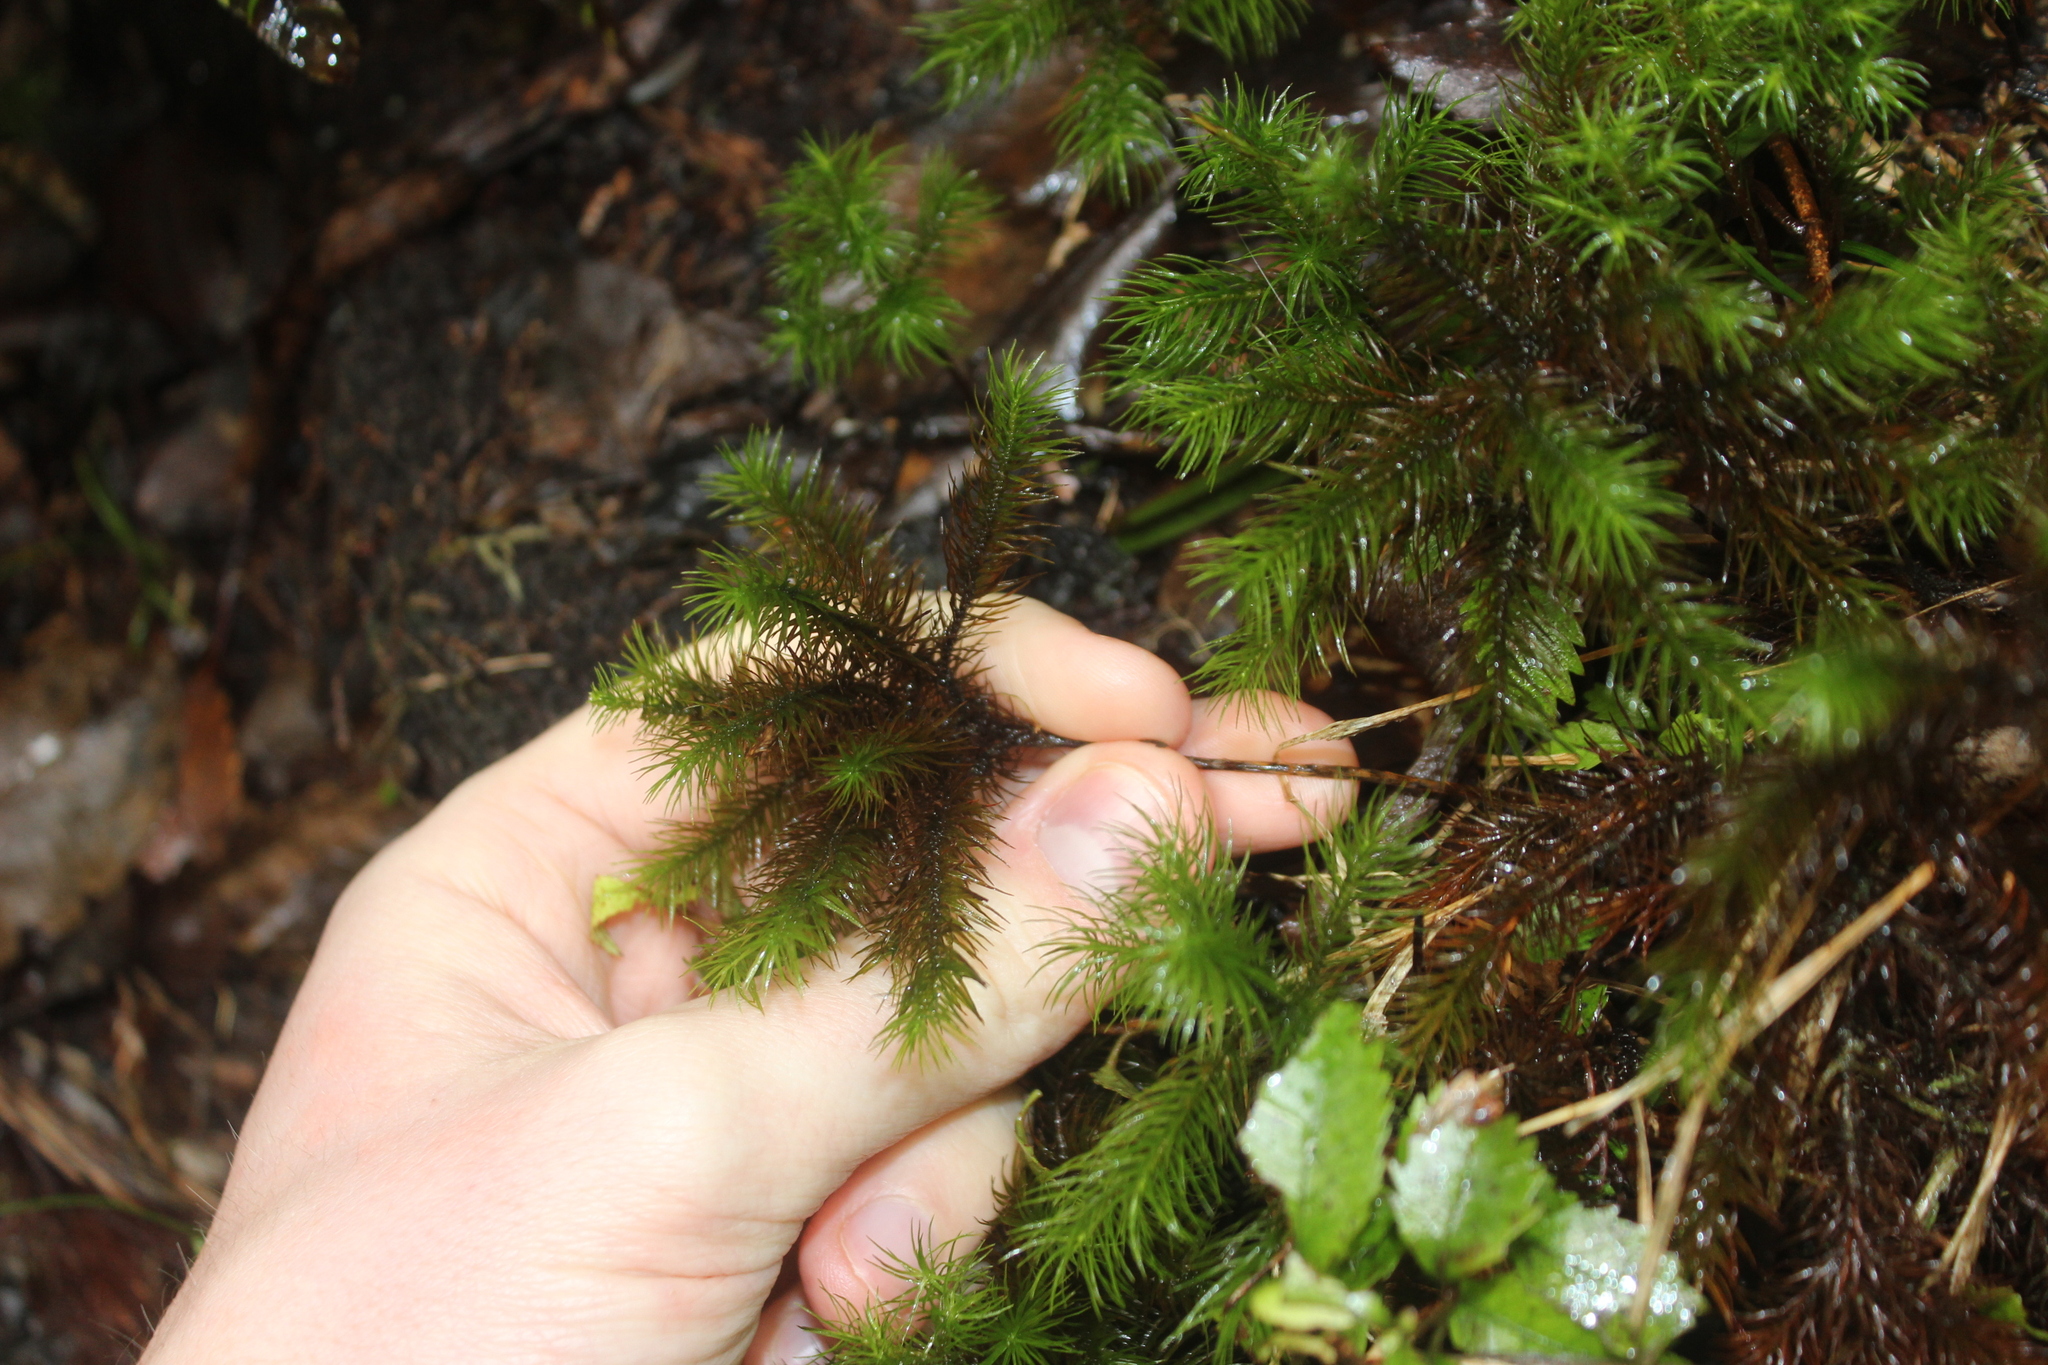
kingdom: Plantae
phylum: Bryophyta
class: Polytrichopsida
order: Polytrichales
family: Polytrichaceae
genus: Dendroligotrichum
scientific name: Dendroligotrichum tongariroense
